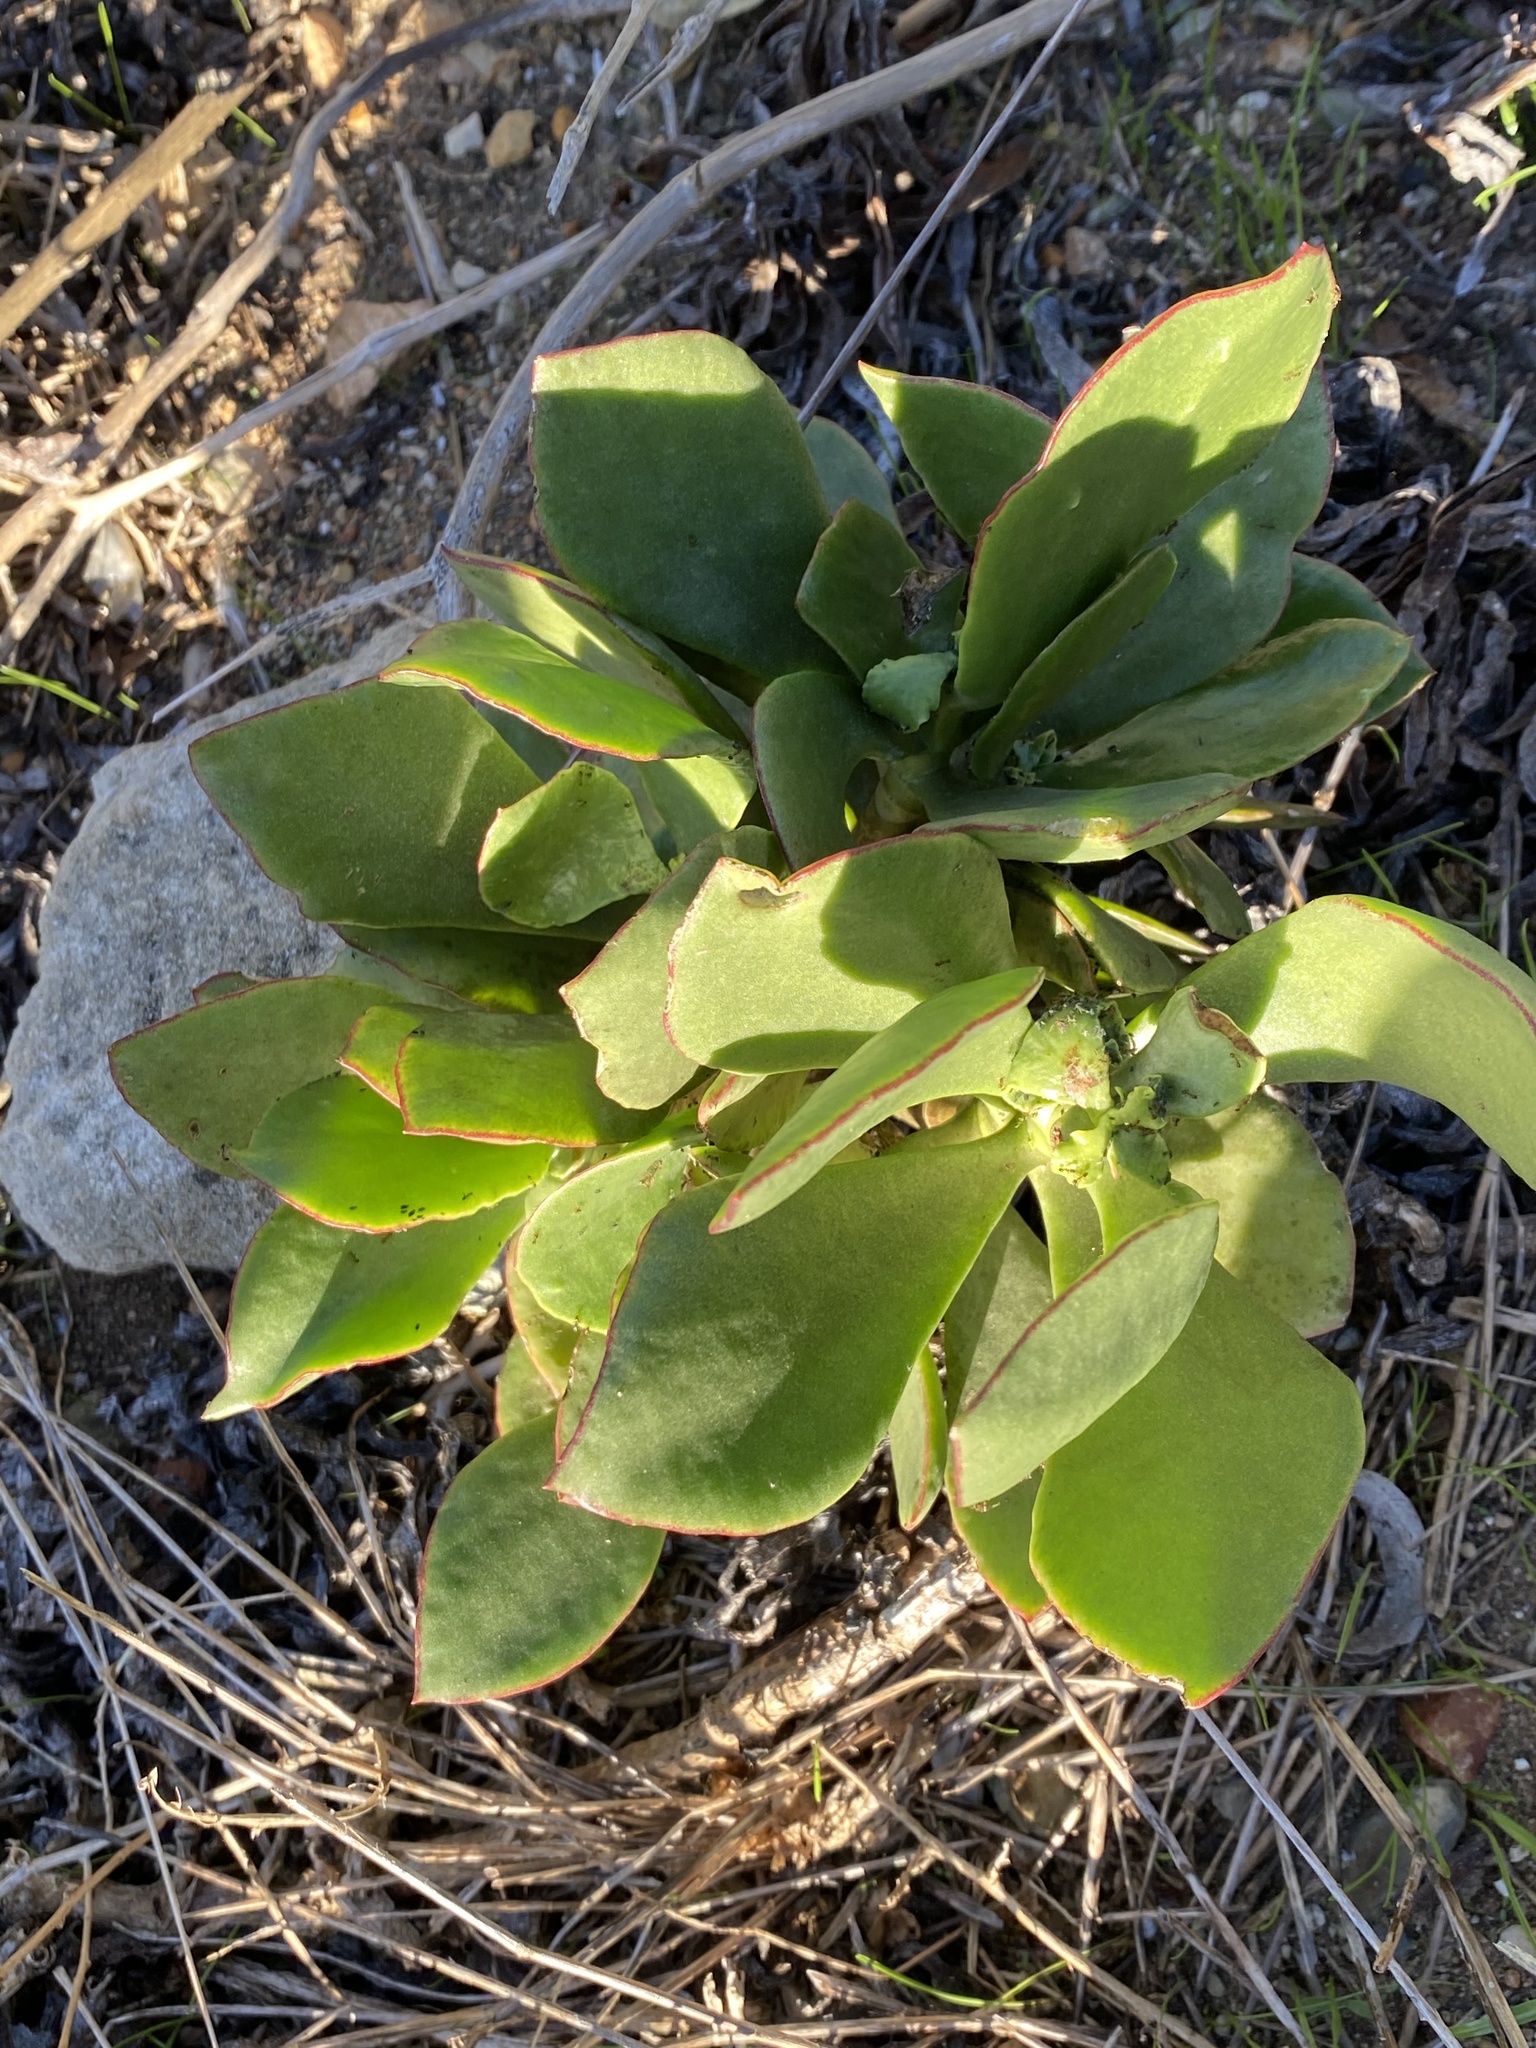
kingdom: Plantae
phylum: Tracheophyta
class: Magnoliopsida
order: Saxifragales
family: Crassulaceae
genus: Cotyledon
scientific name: Cotyledon orbiculata
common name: Pig's ear
